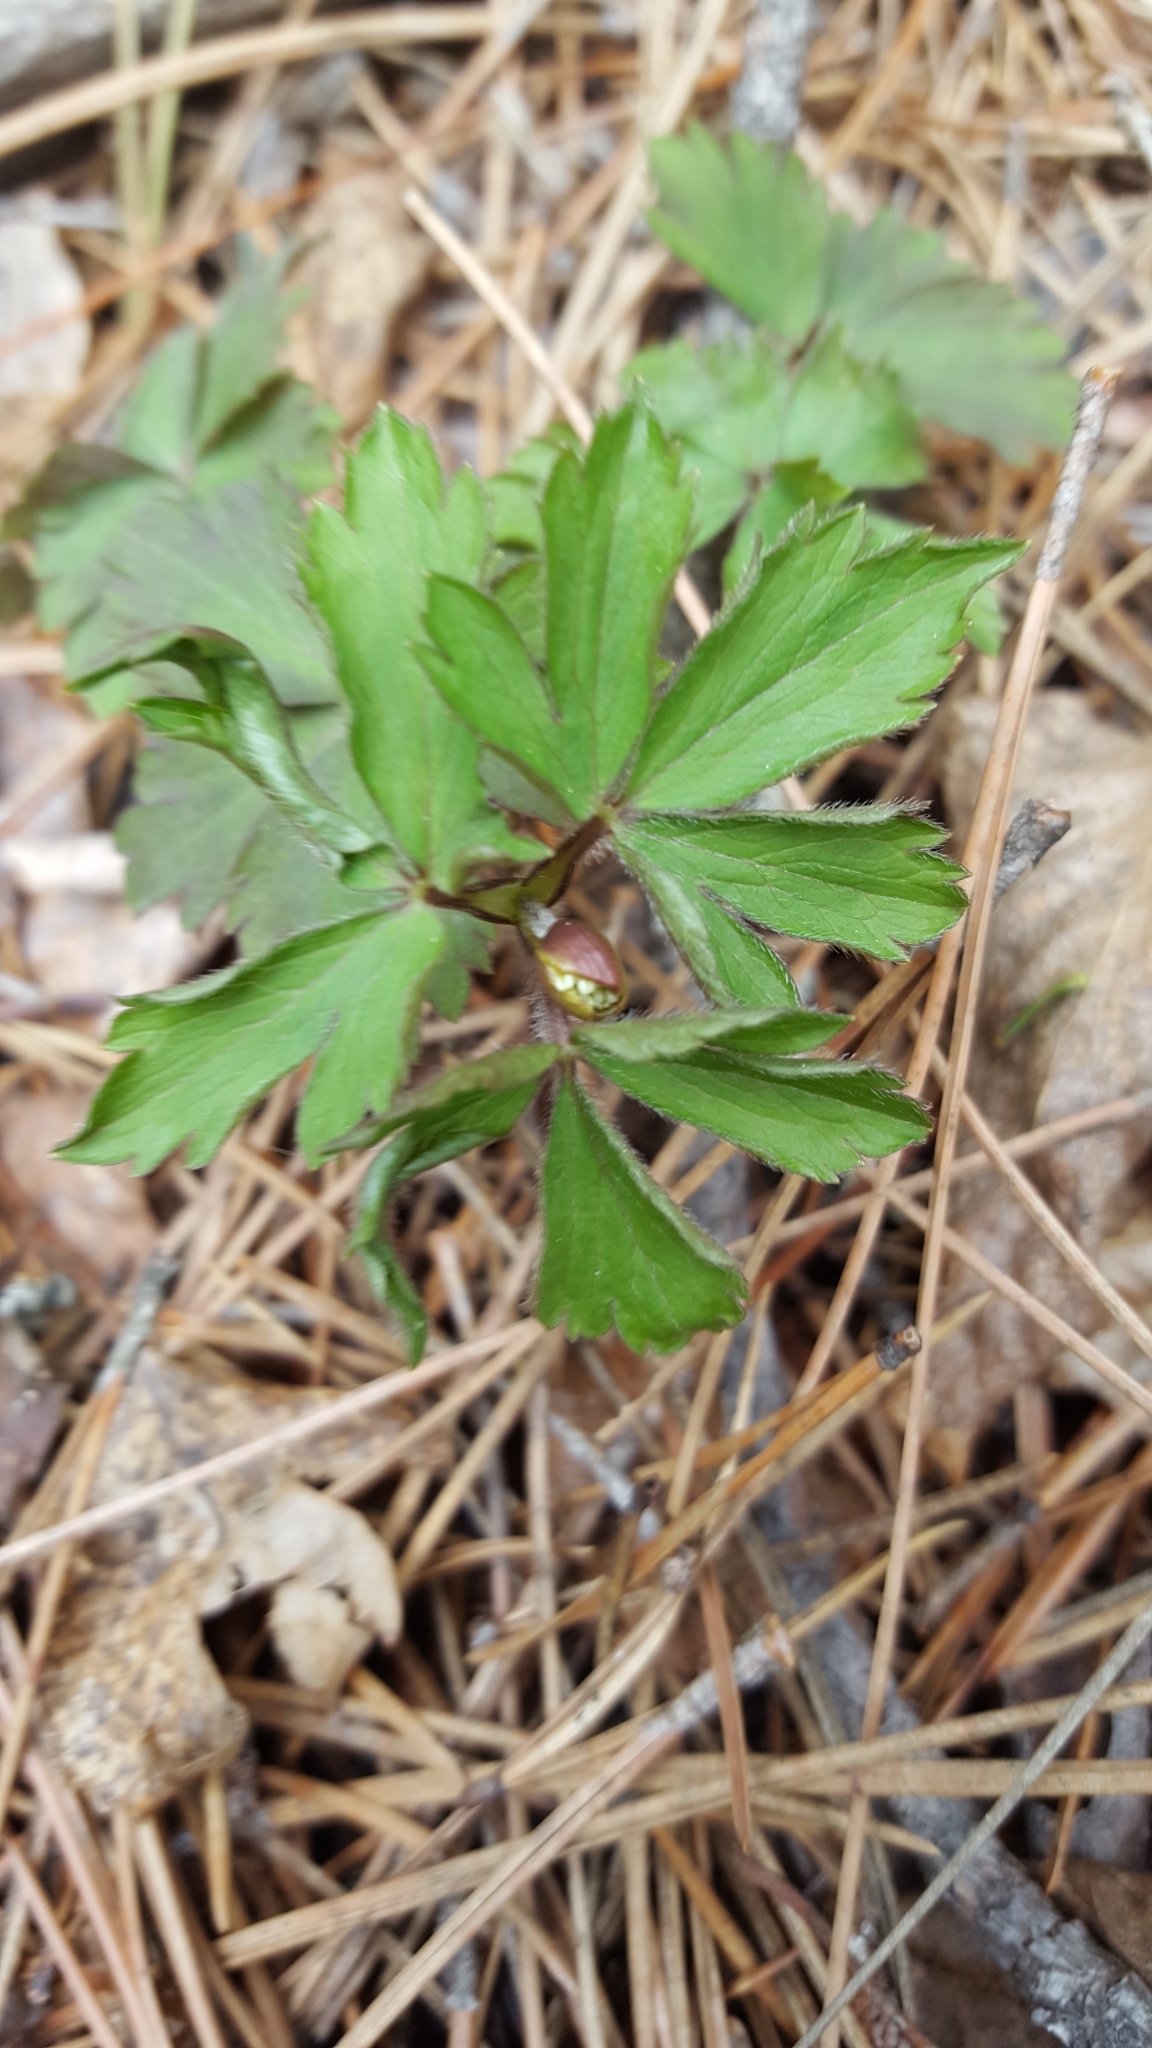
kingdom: Plantae
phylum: Tracheophyta
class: Magnoliopsida
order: Ranunculales
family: Ranunculaceae
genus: Anemone
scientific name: Anemone quinquefolia
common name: Wood anemone
